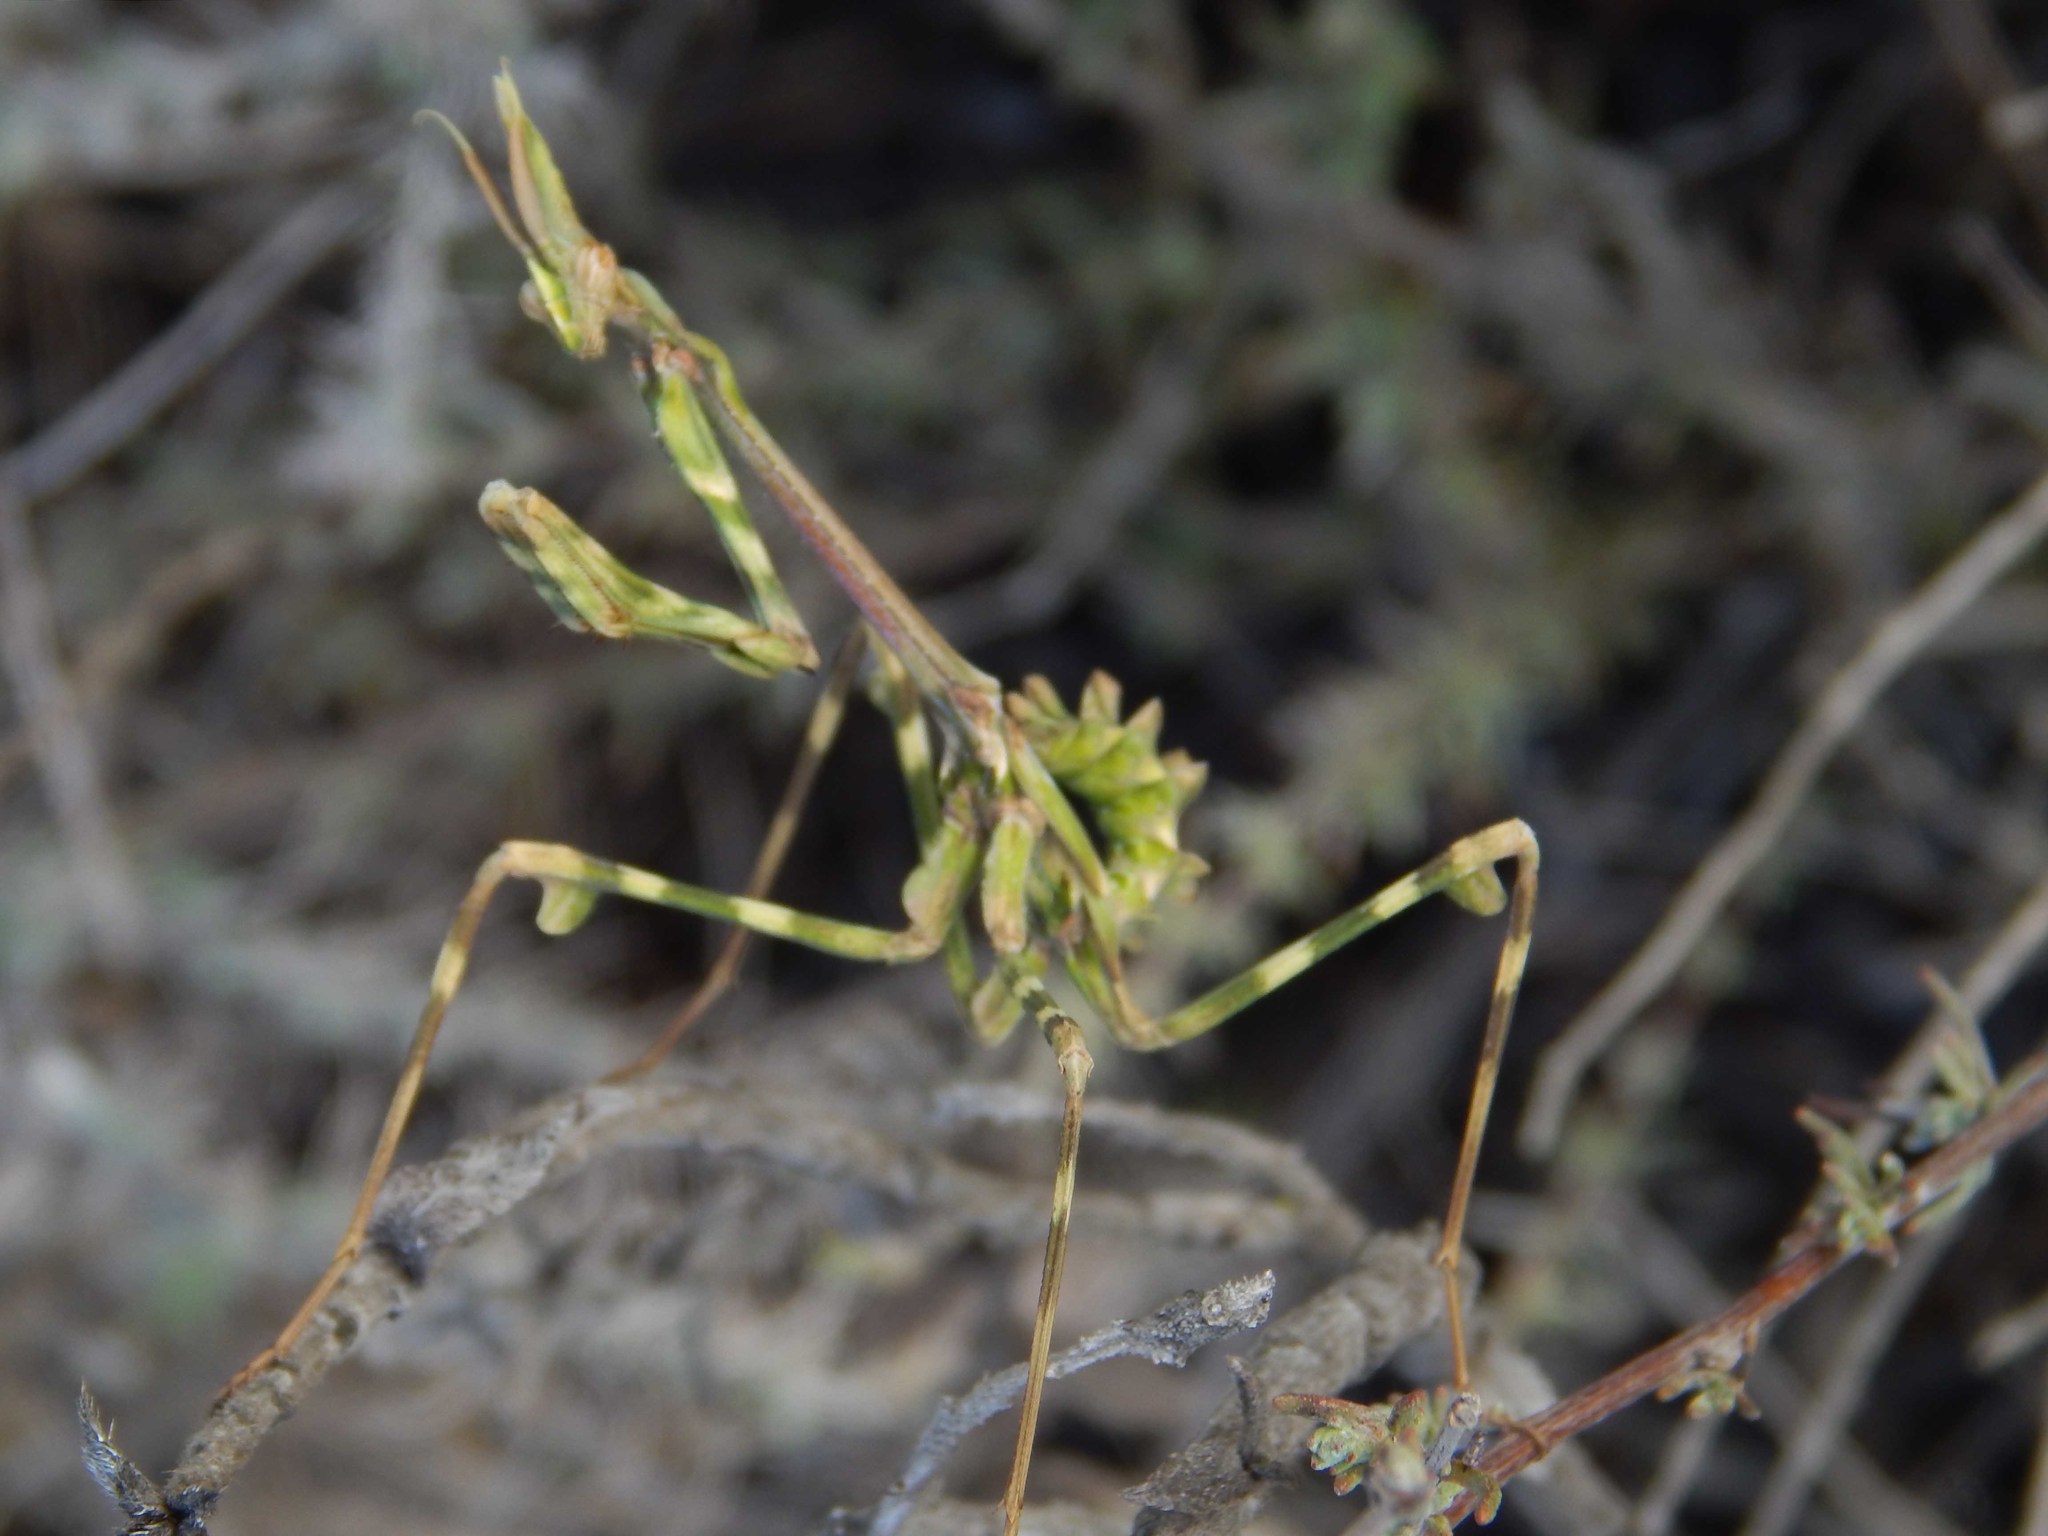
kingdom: Animalia
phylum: Arthropoda
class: Insecta
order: Mantodea
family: Empusidae
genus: Empusa
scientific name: Empusa binotata
